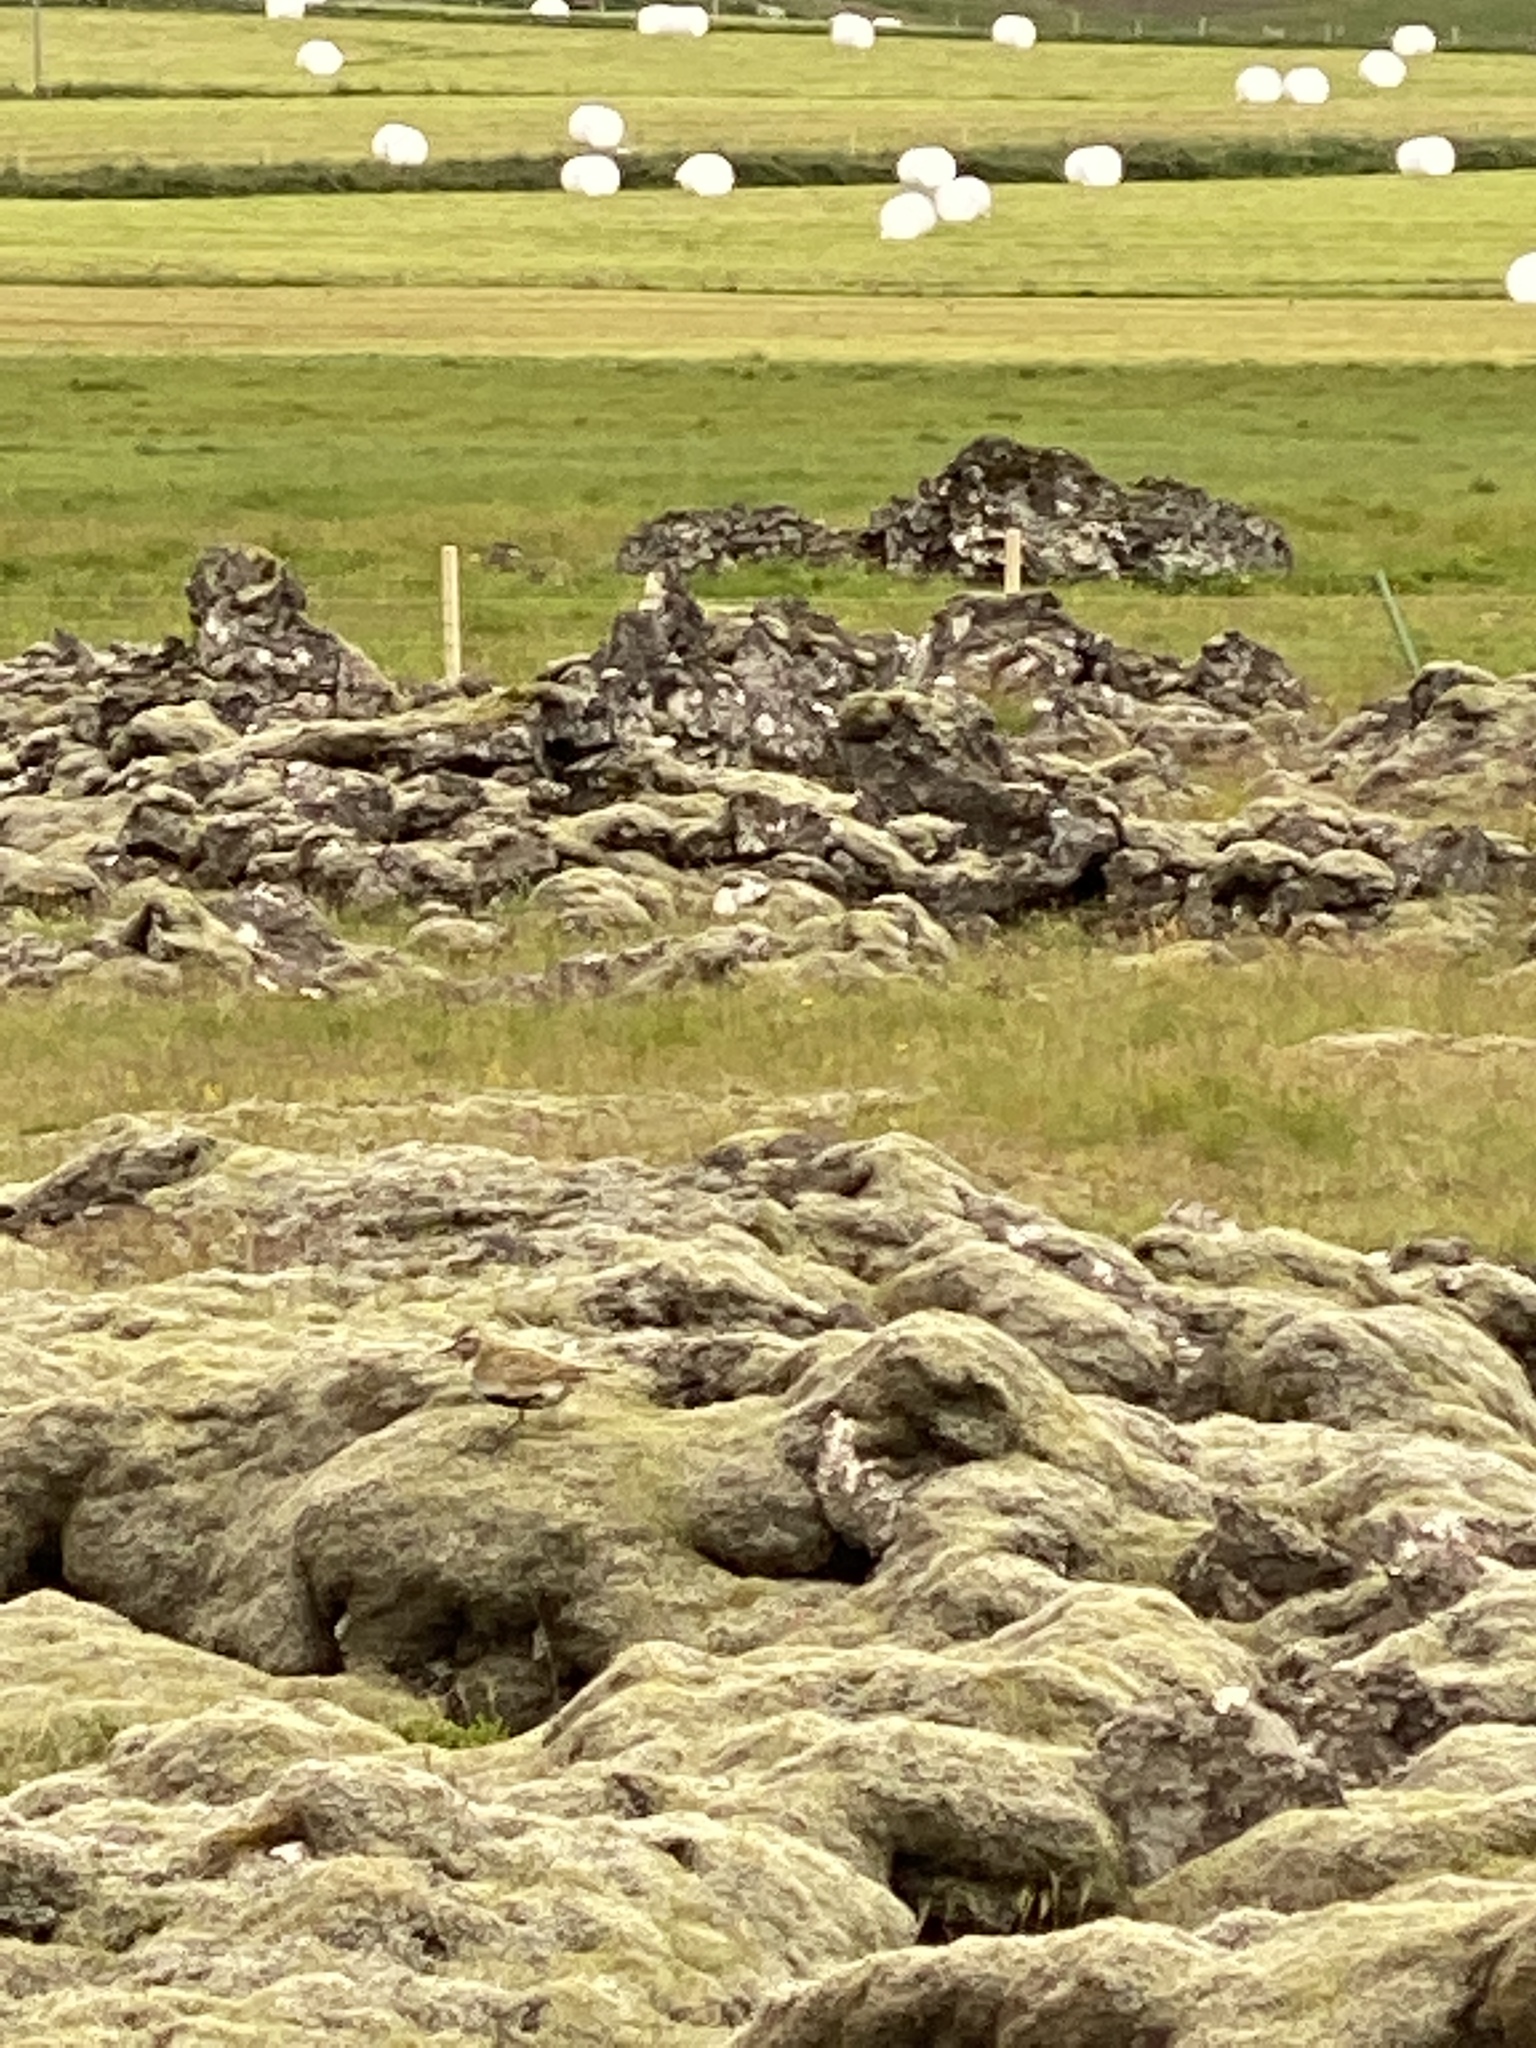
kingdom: Animalia
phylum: Chordata
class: Aves
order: Charadriiformes
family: Charadriidae
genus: Pluvialis
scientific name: Pluvialis apricaria
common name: European golden plover
